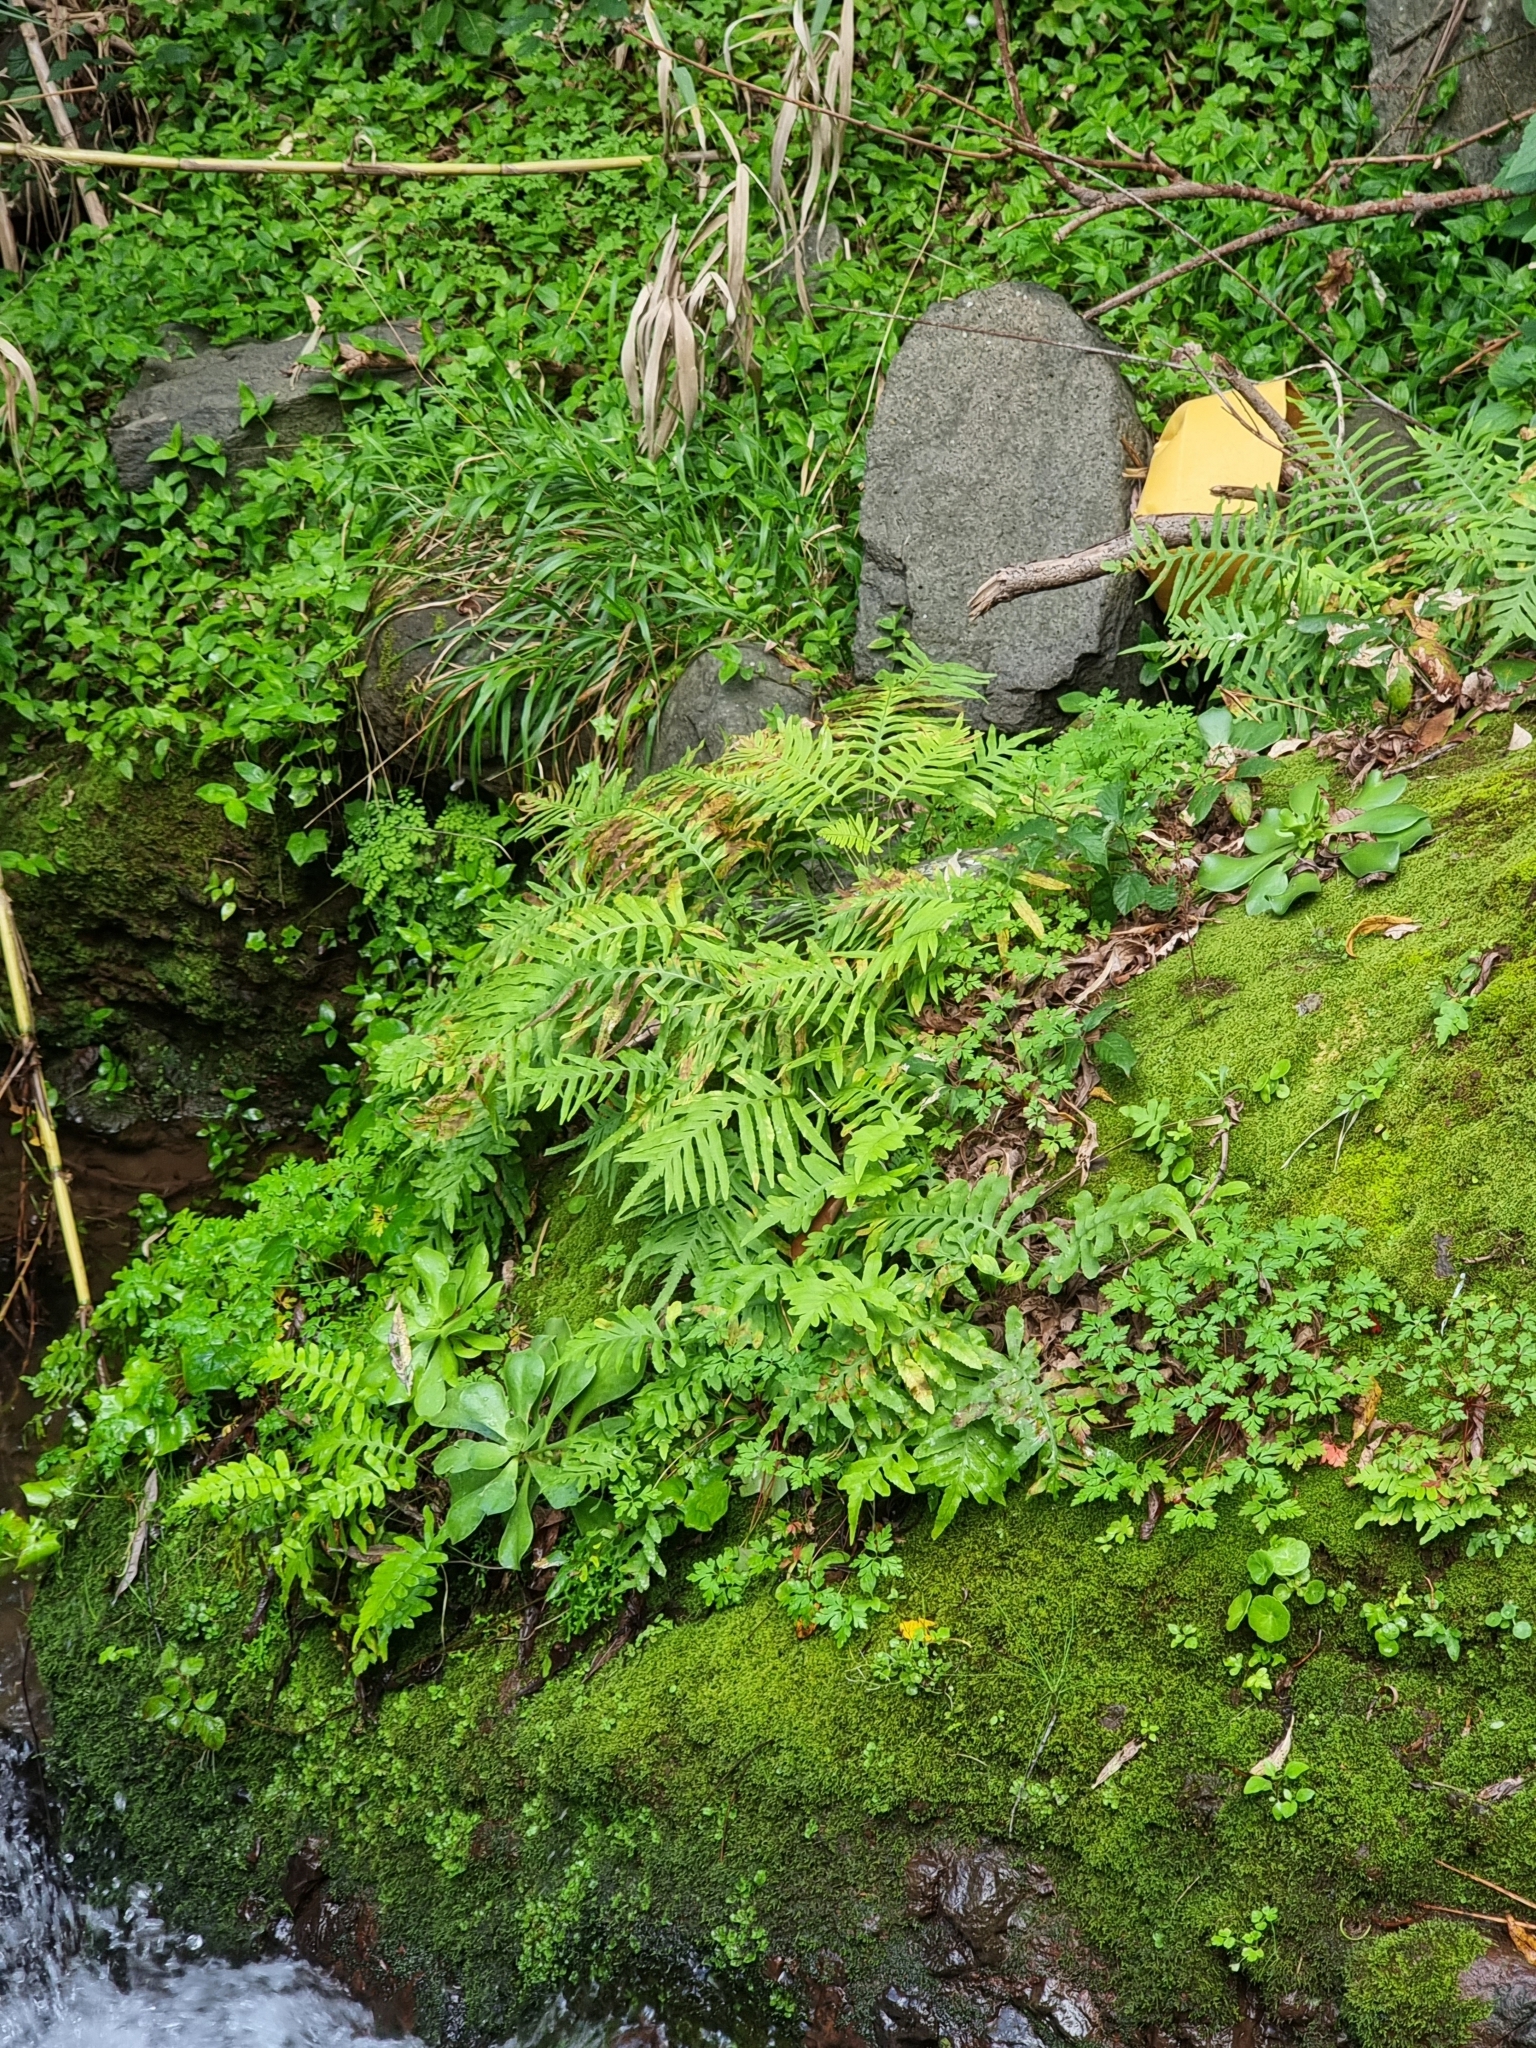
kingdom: Plantae
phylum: Tracheophyta
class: Polypodiopsida
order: Polypodiales
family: Polypodiaceae
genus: Polypodium
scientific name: Polypodium macaronesicum
